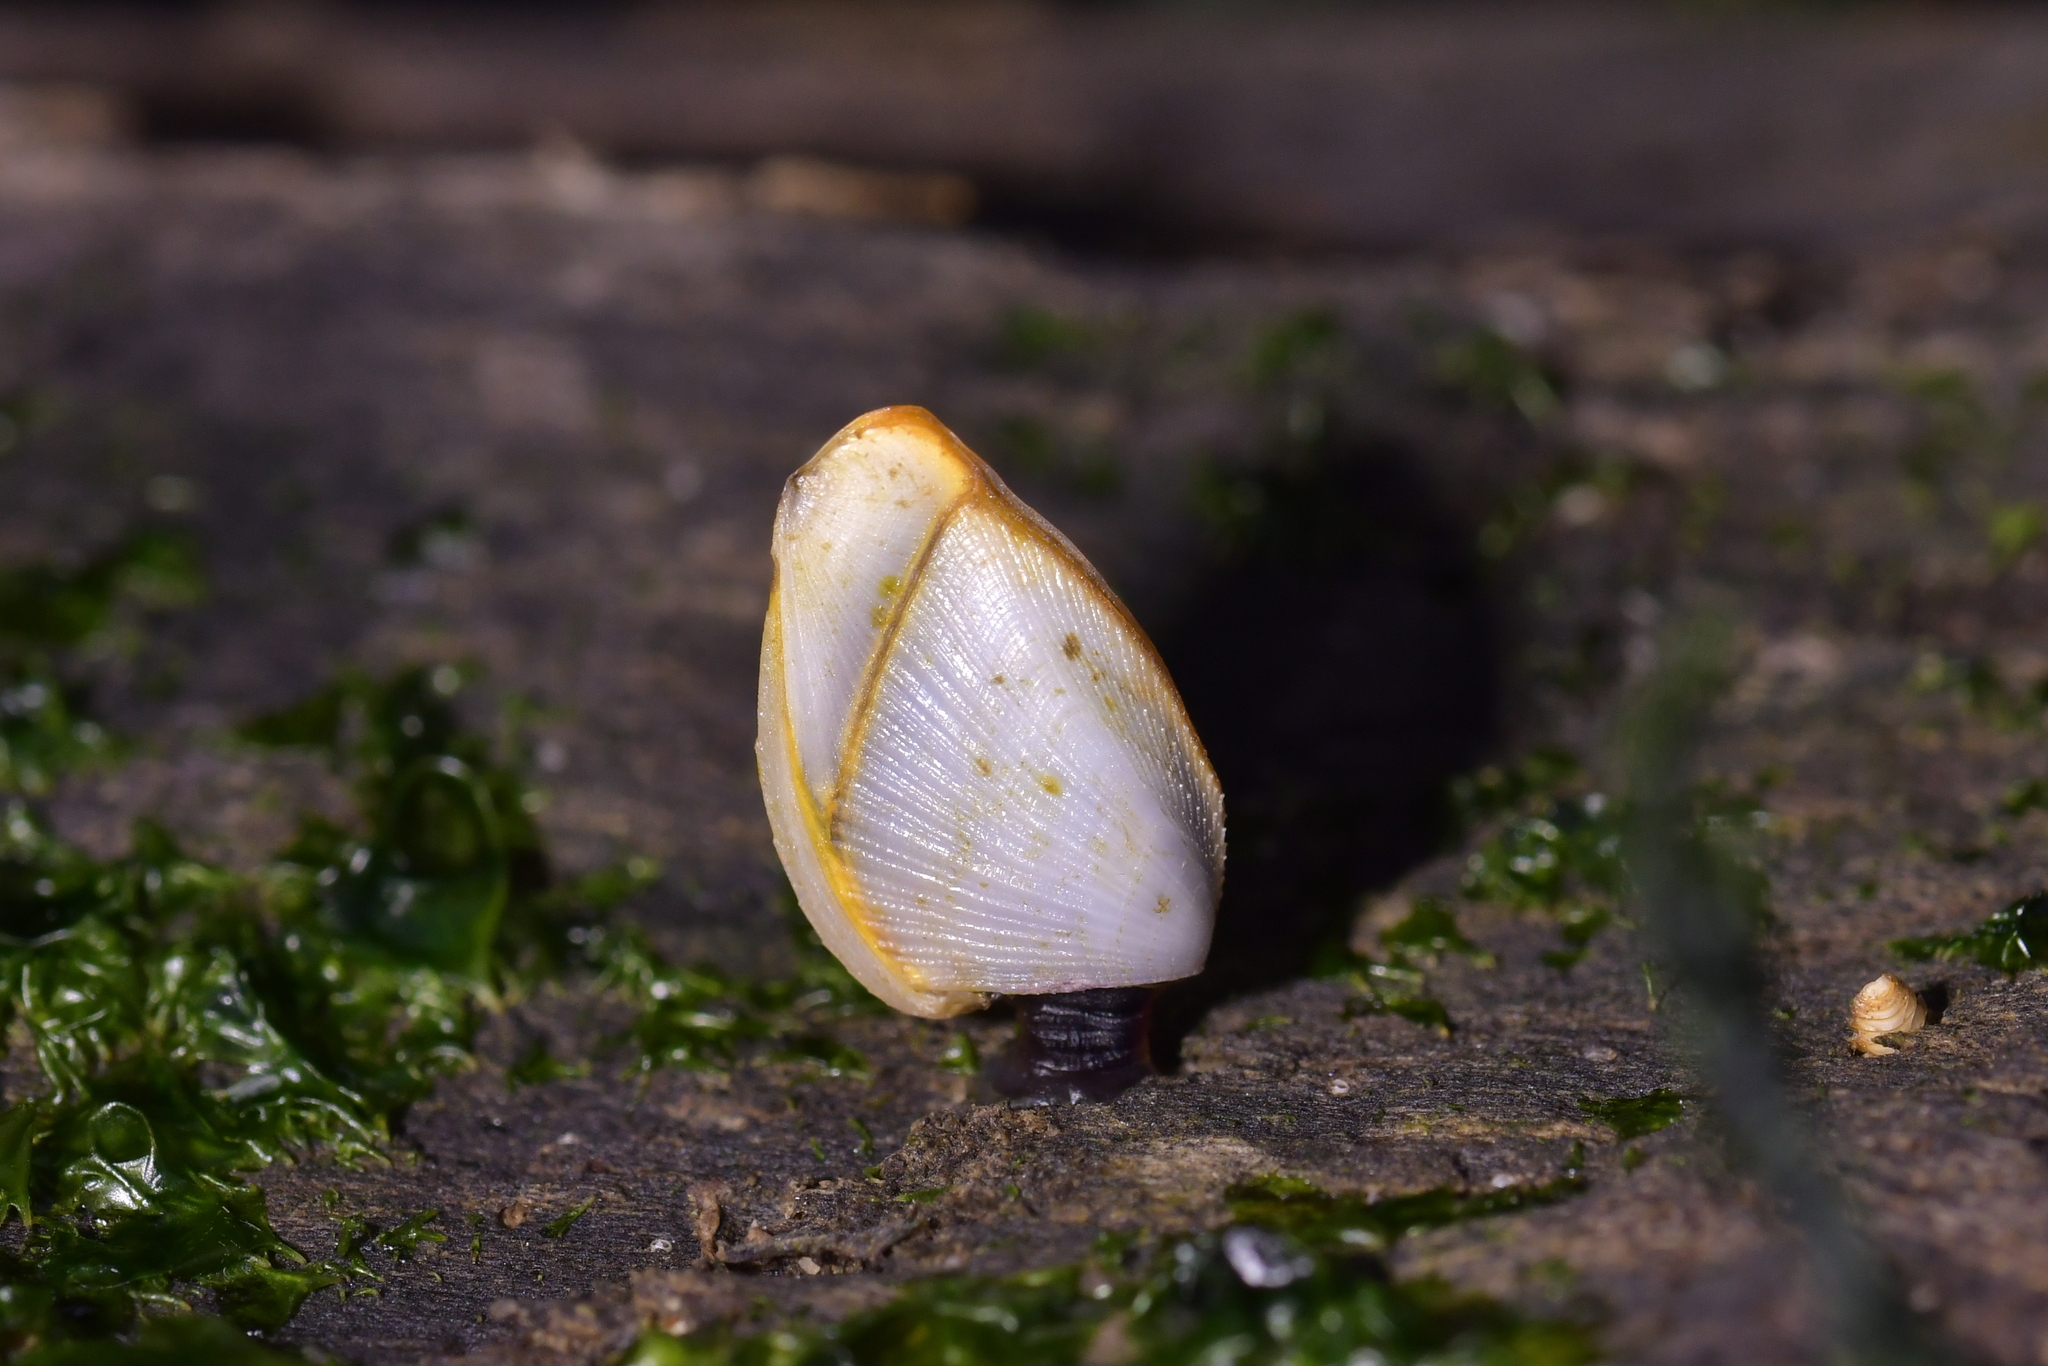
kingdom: Animalia
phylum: Arthropoda
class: Maxillopoda
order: Pedunculata
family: Lepadidae
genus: Lepas
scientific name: Lepas anatifera
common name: Common goose barnacle
